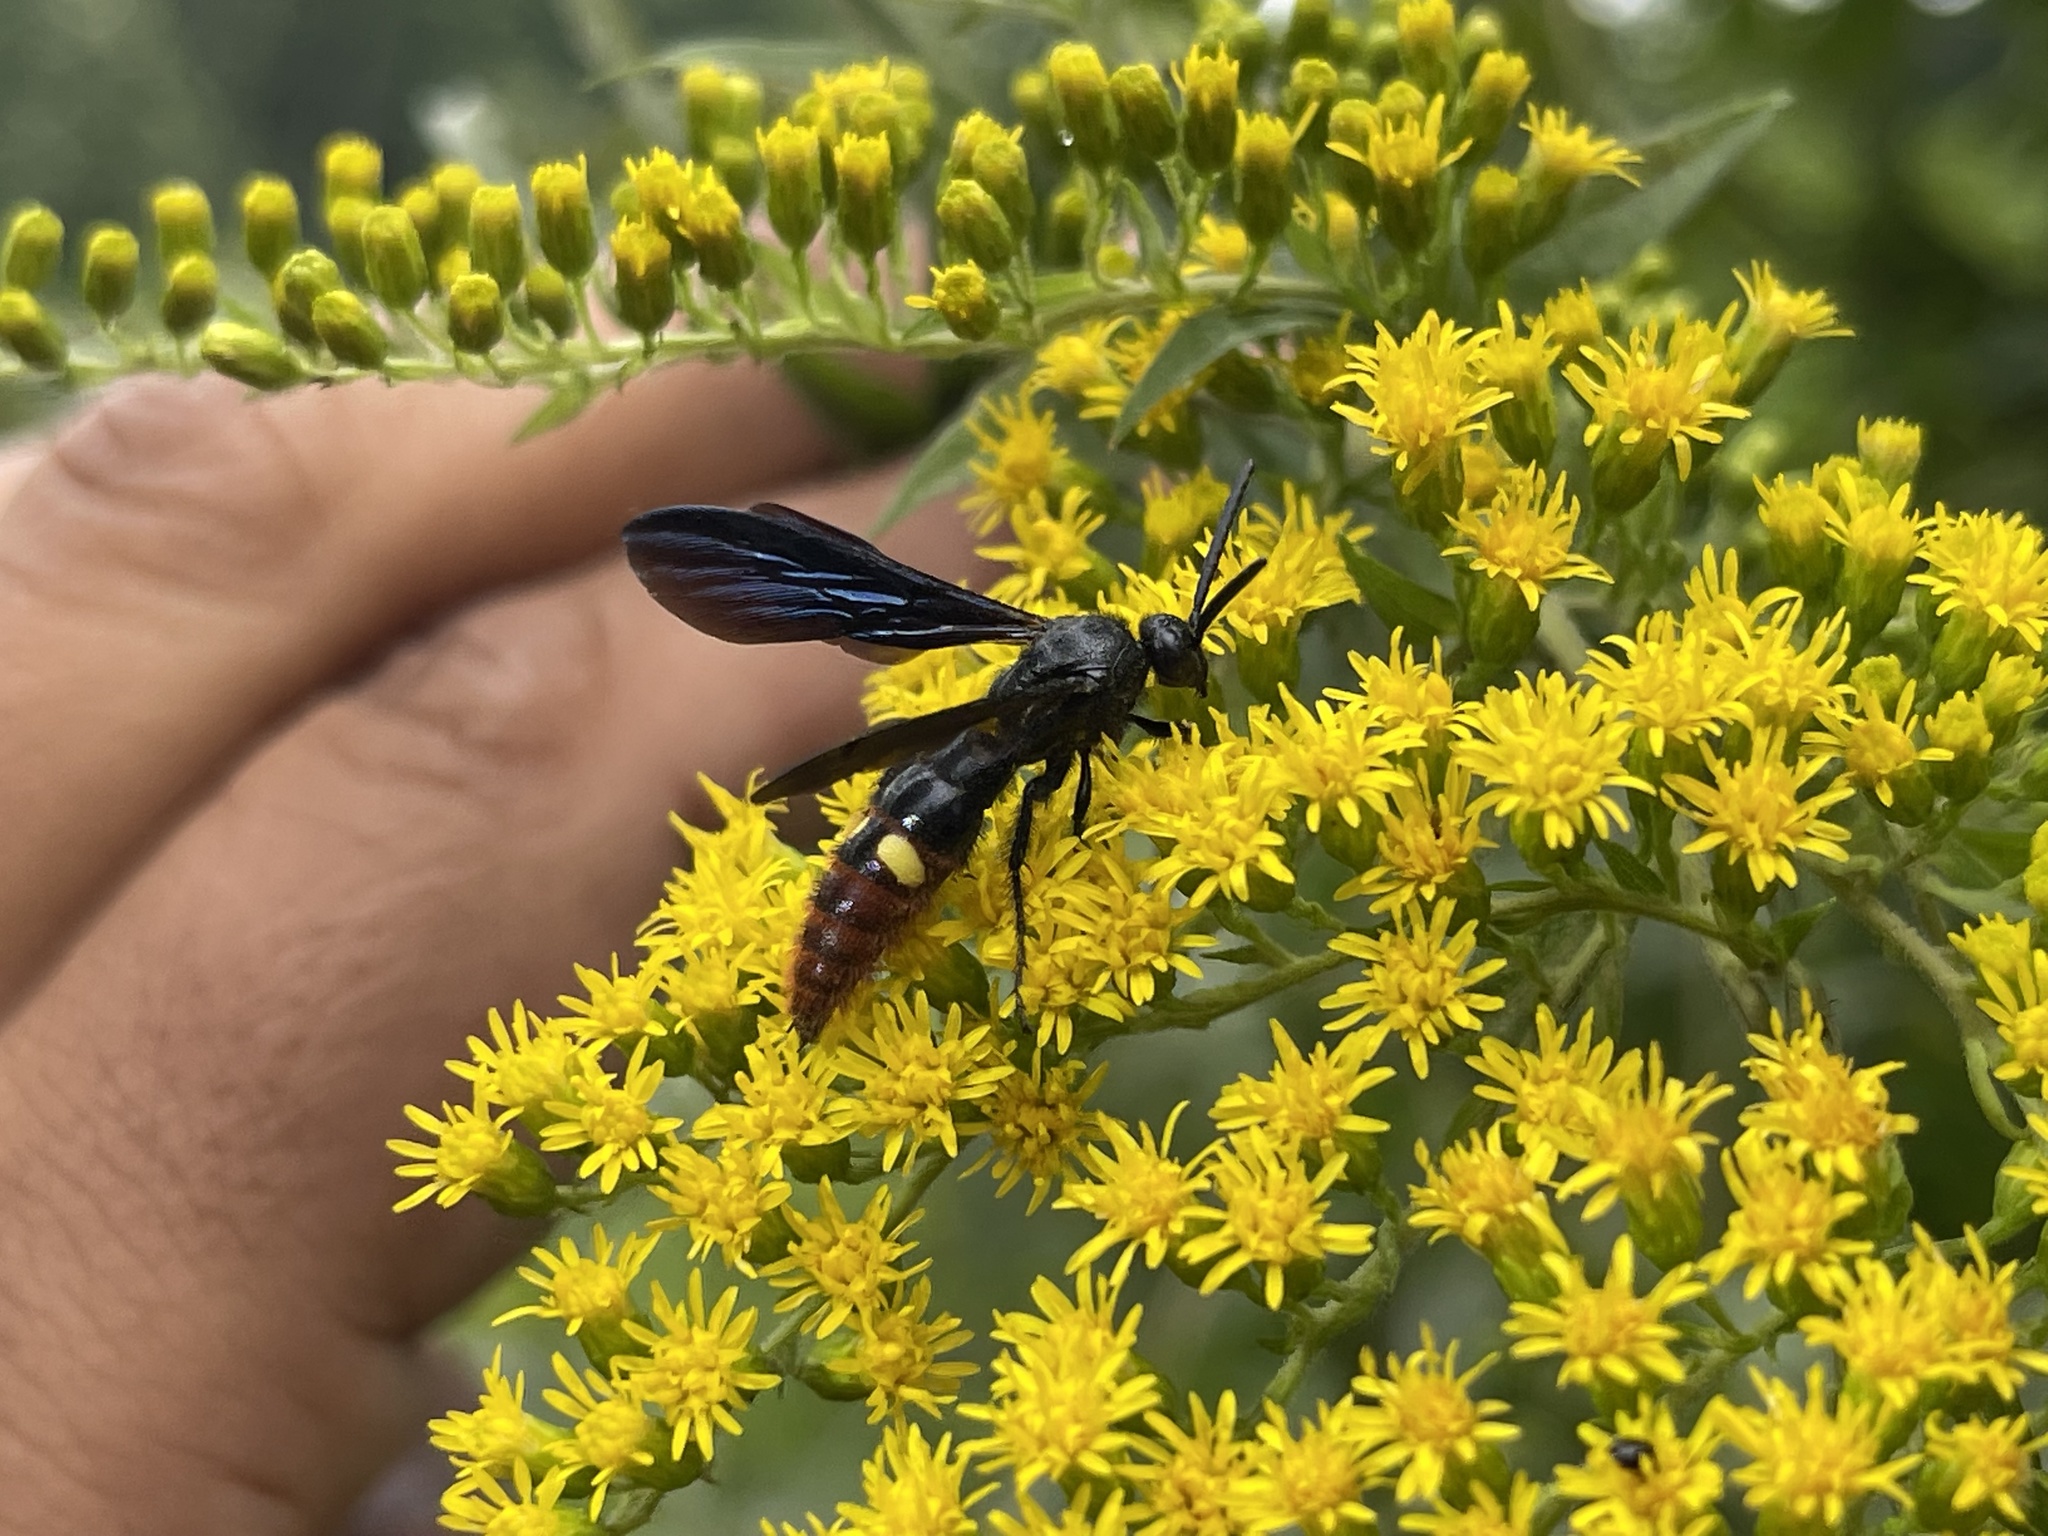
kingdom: Animalia
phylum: Arthropoda
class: Insecta
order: Hymenoptera
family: Scoliidae
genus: Scolia
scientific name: Scolia dubia
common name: Blue-winged scoliid wasp
